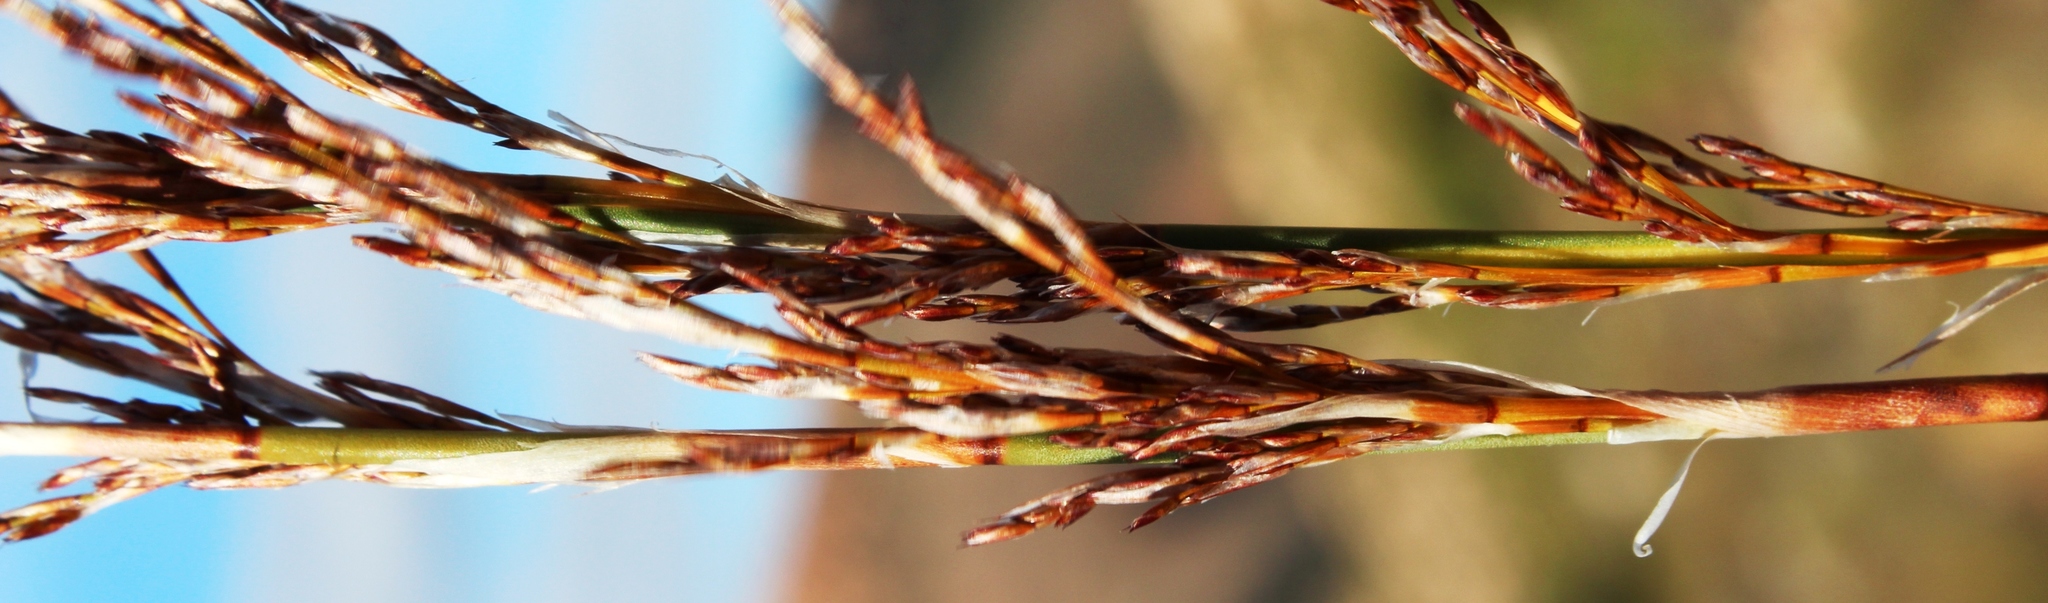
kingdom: Plantae
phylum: Tracheophyta
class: Liliopsida
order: Poales
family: Restionaceae
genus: Rhodocoma
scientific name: Rhodocoma fruticosa
